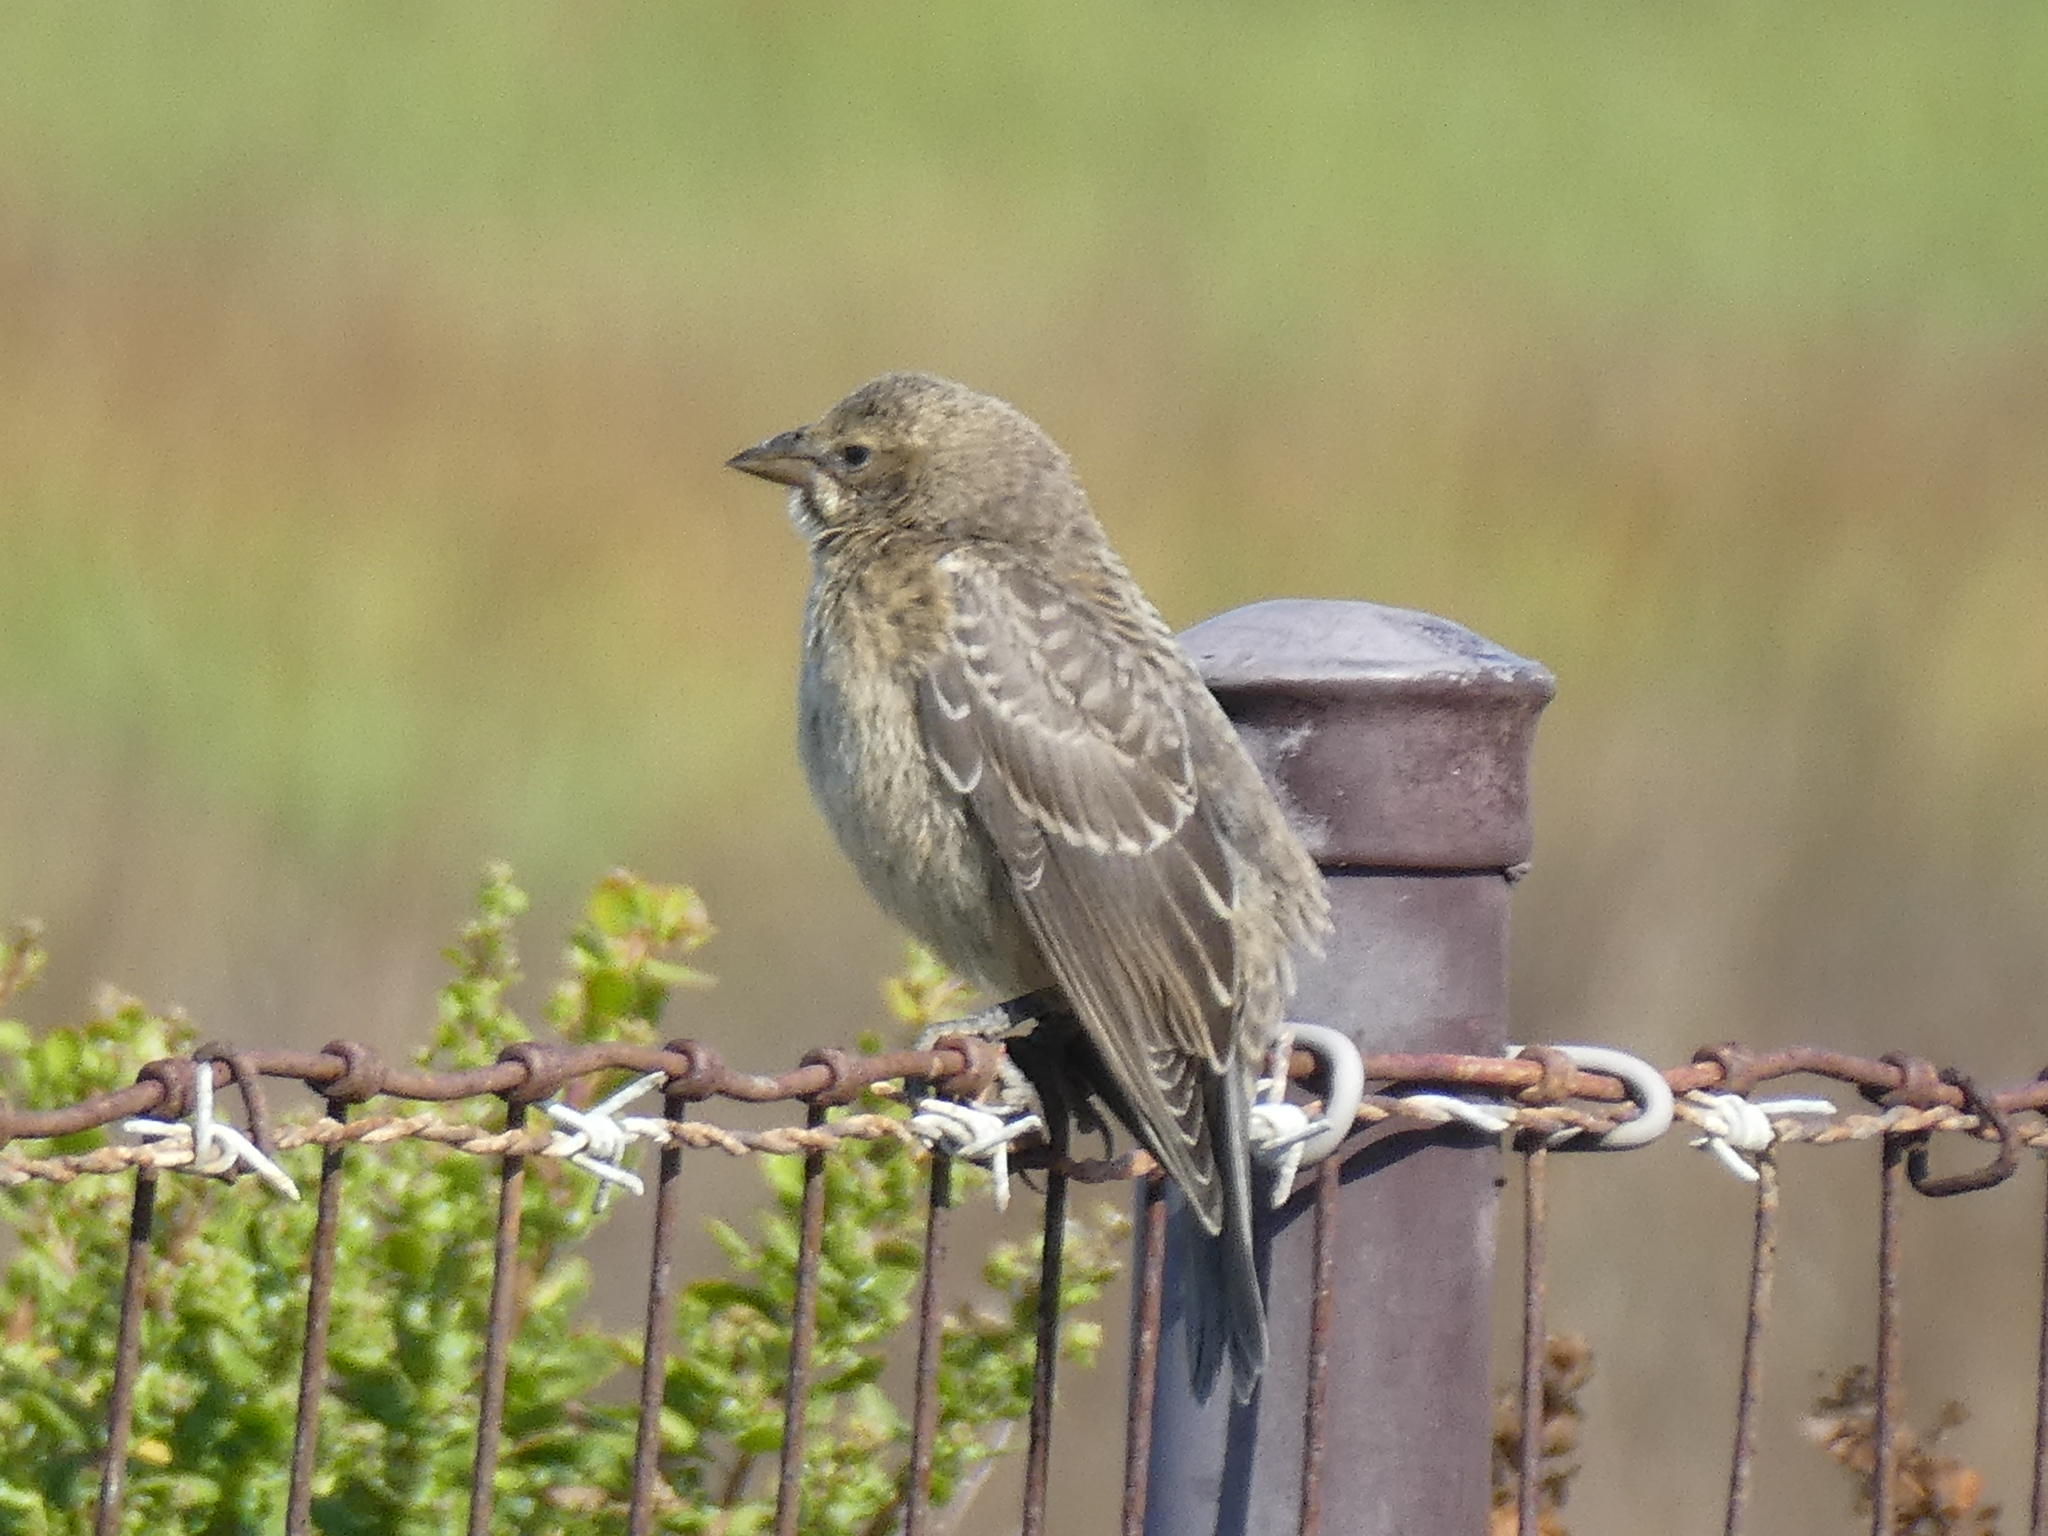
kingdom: Animalia
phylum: Chordata
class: Aves
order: Passeriformes
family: Icteridae
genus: Molothrus
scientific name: Molothrus ater
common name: Brown-headed cowbird
